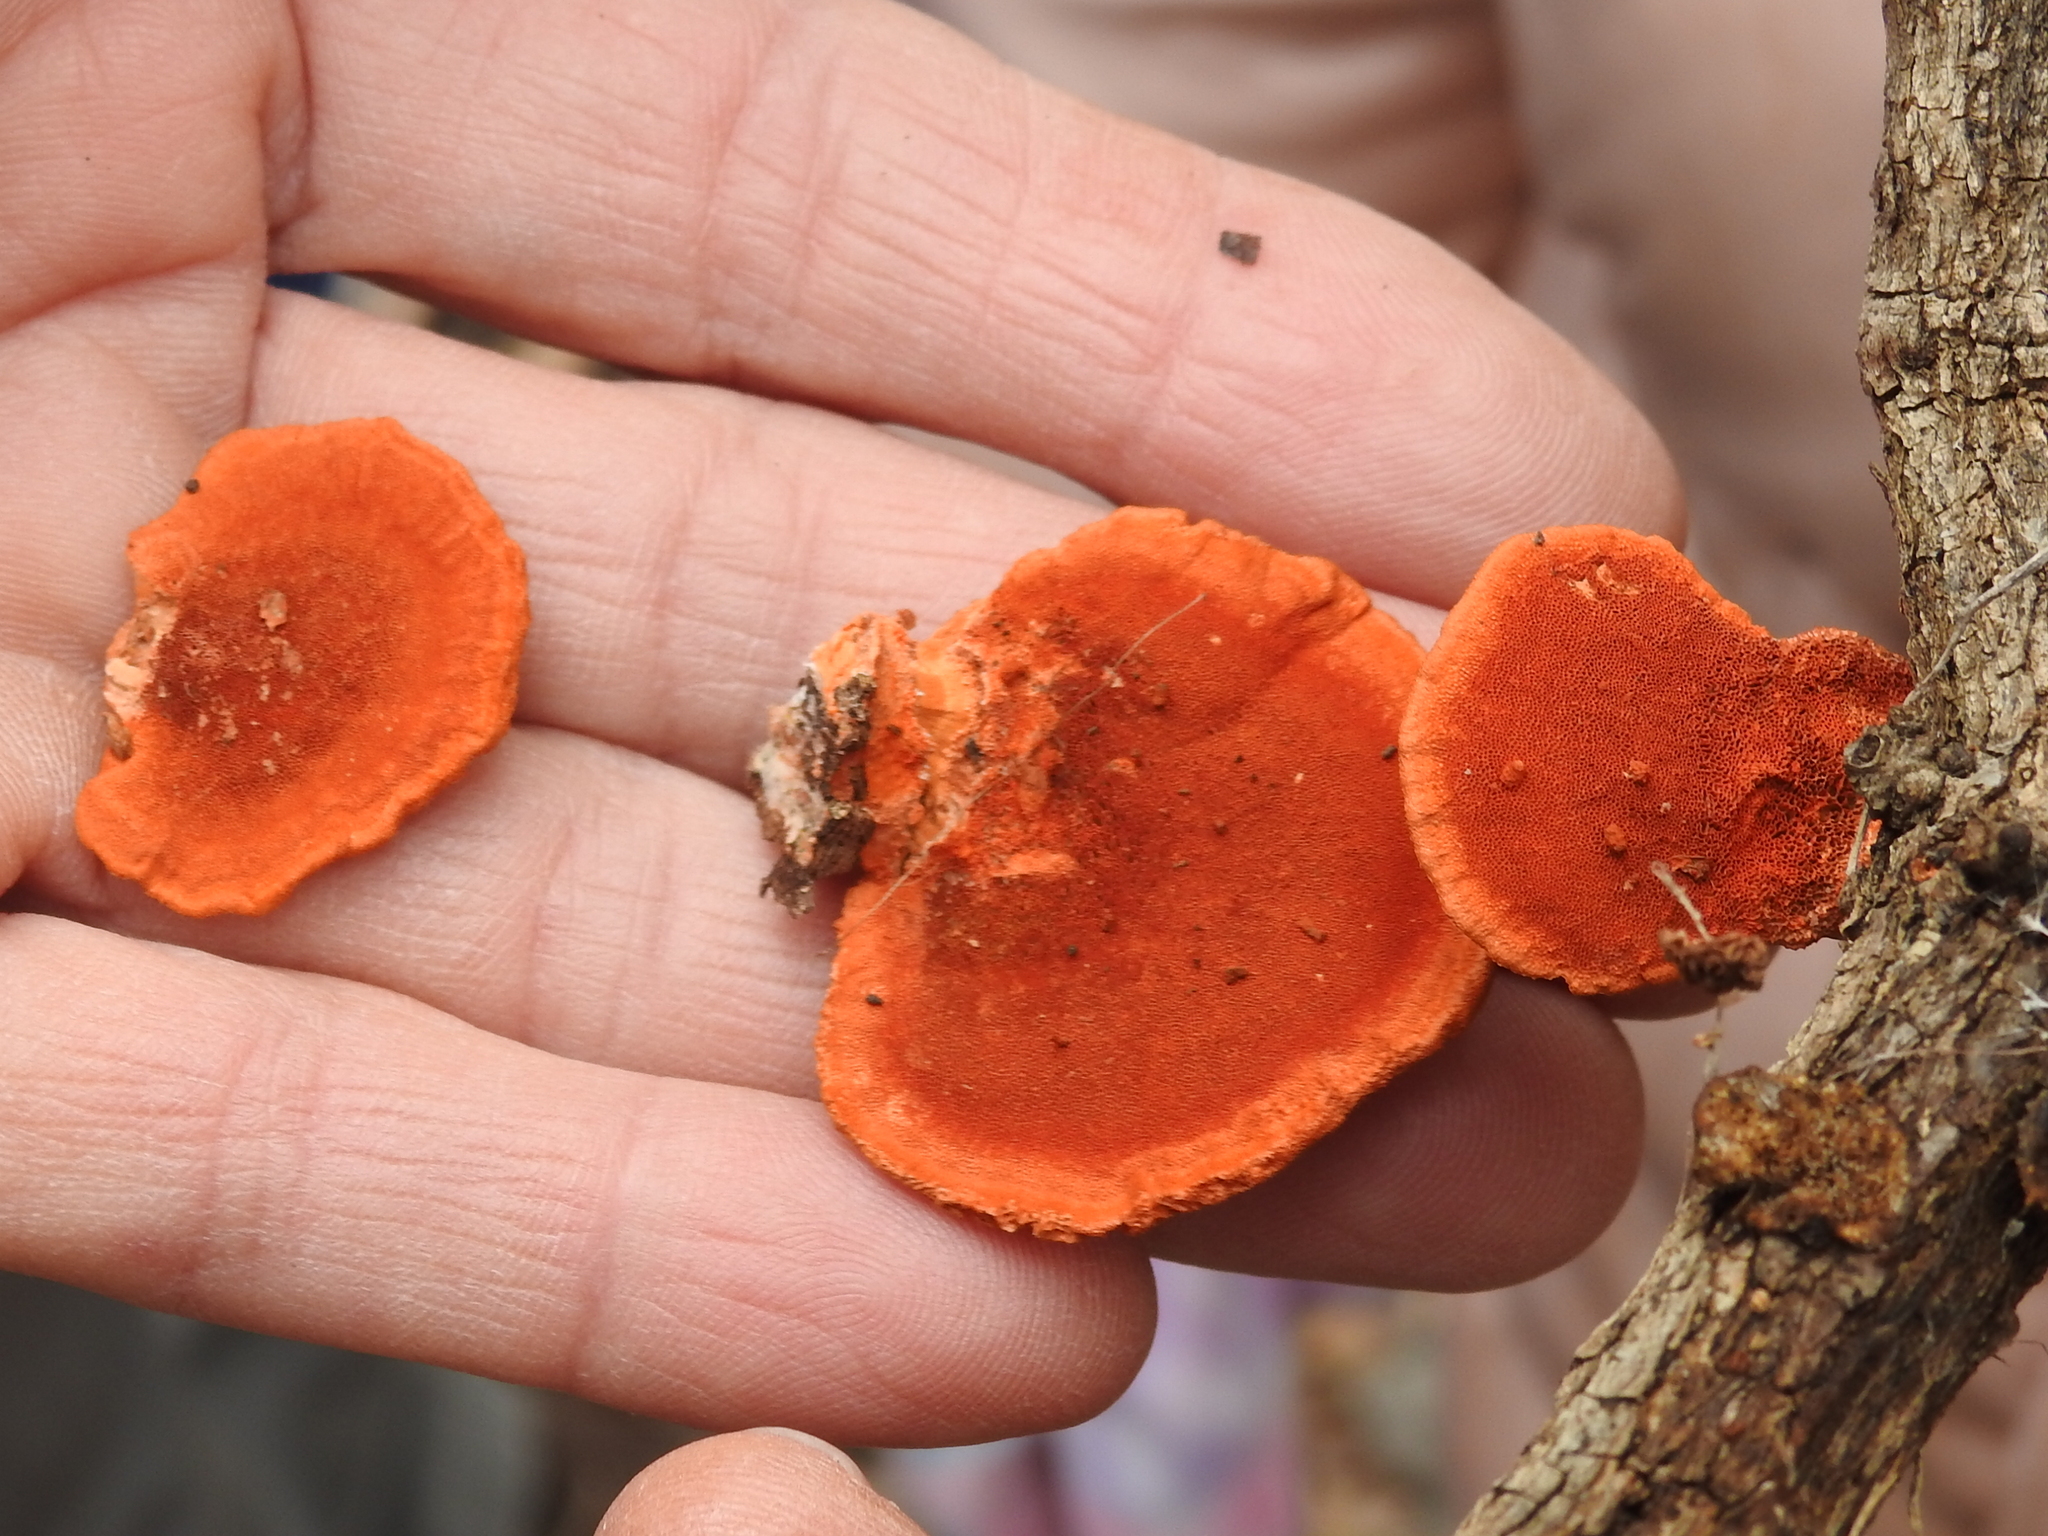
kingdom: Fungi
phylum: Basidiomycota
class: Agaricomycetes
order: Polyporales
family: Polyporaceae
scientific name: Polyporaceae
